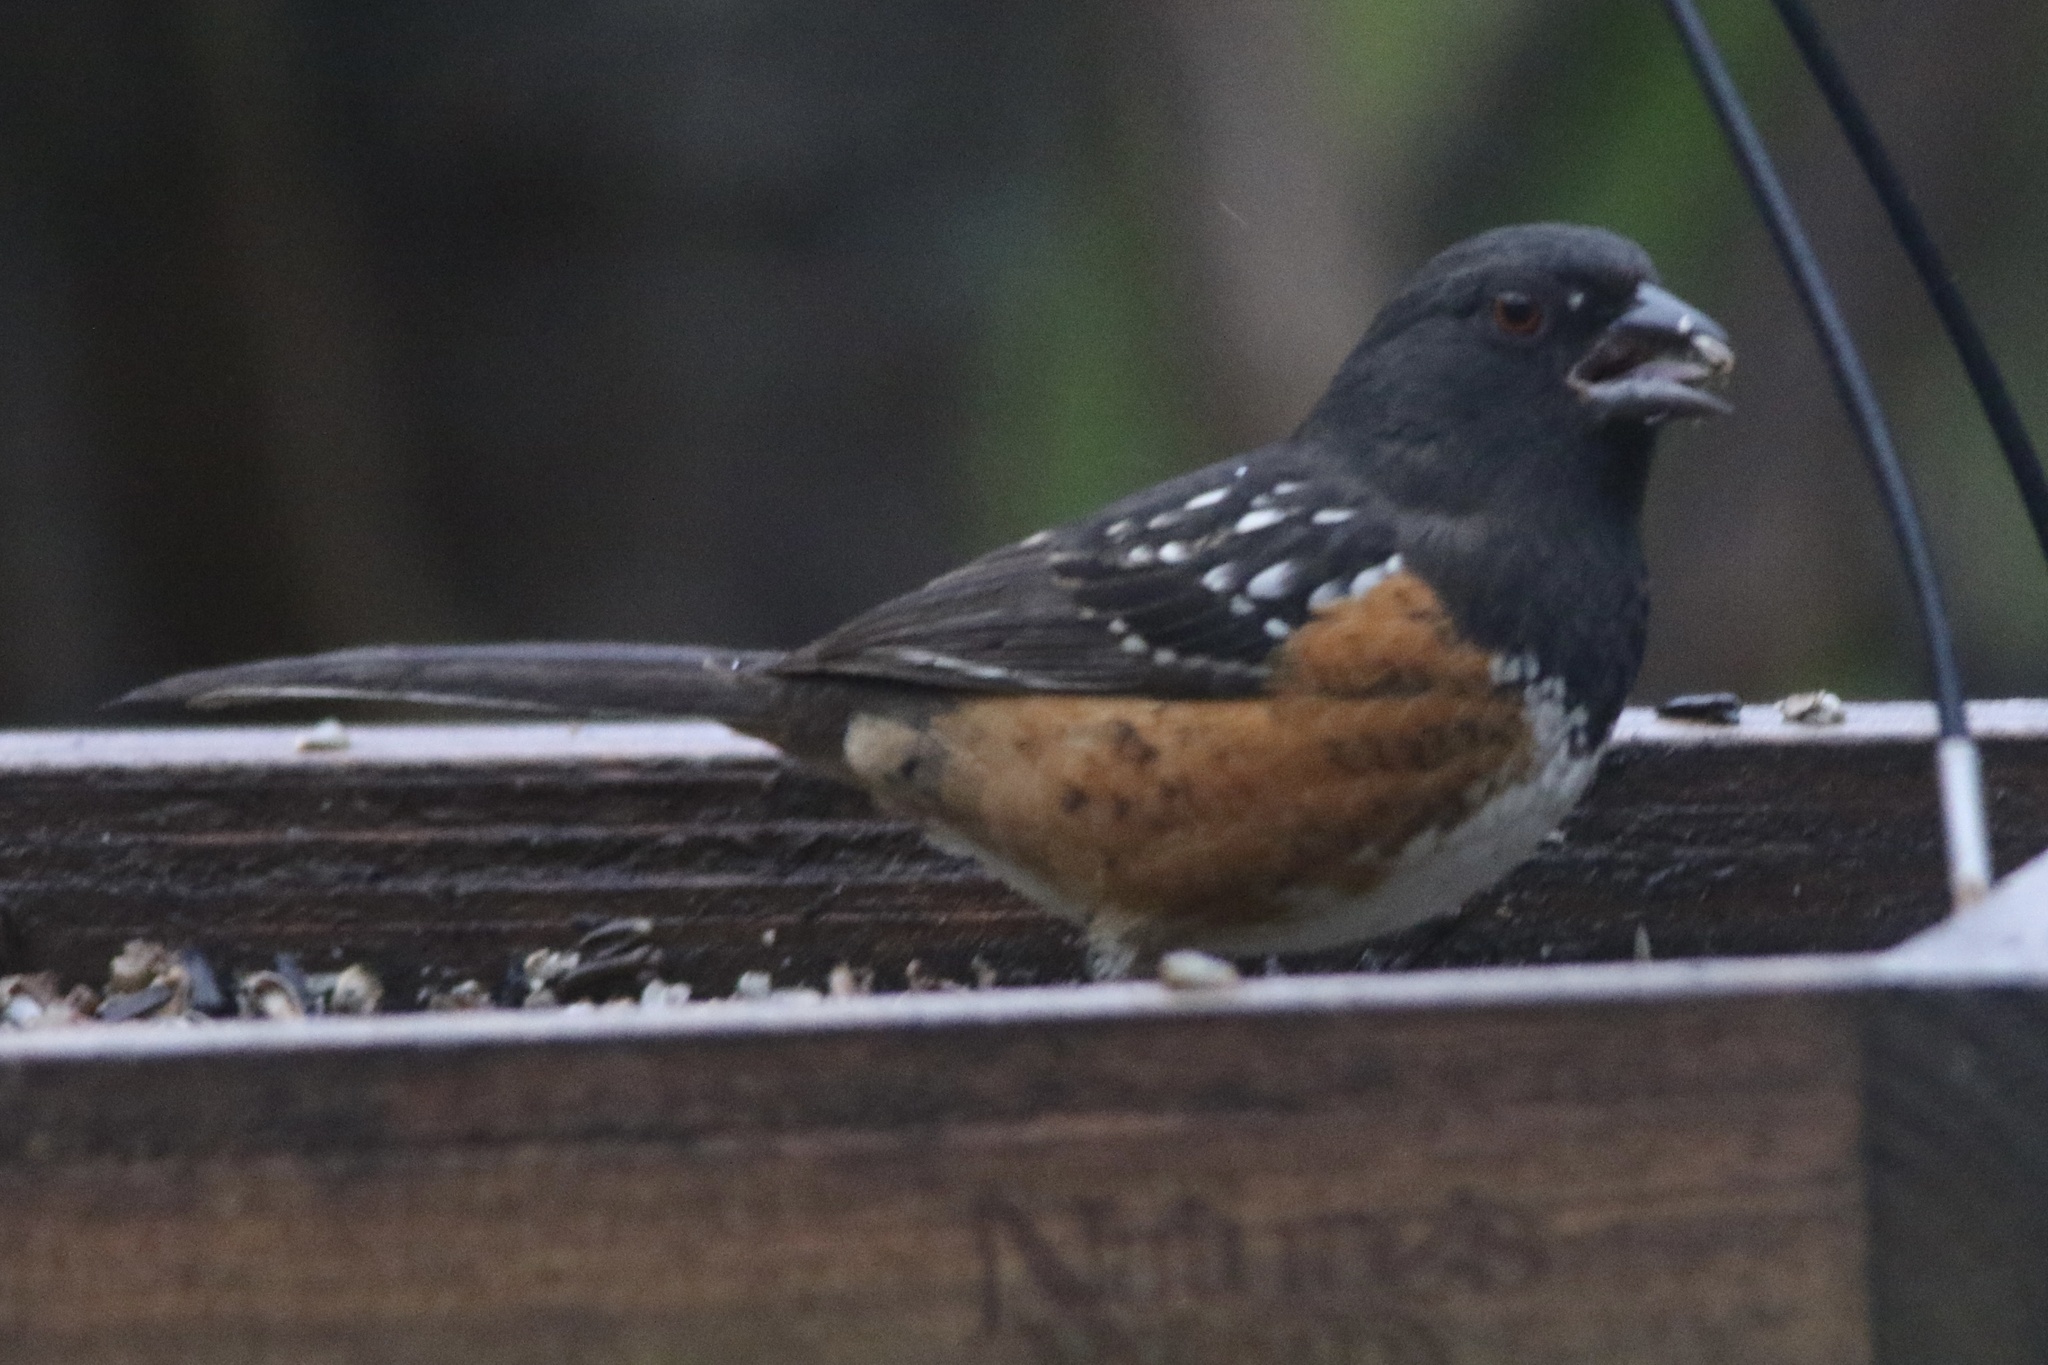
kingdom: Animalia
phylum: Chordata
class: Aves
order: Passeriformes
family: Passerellidae
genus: Pipilo
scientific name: Pipilo maculatus
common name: Spotted towhee
